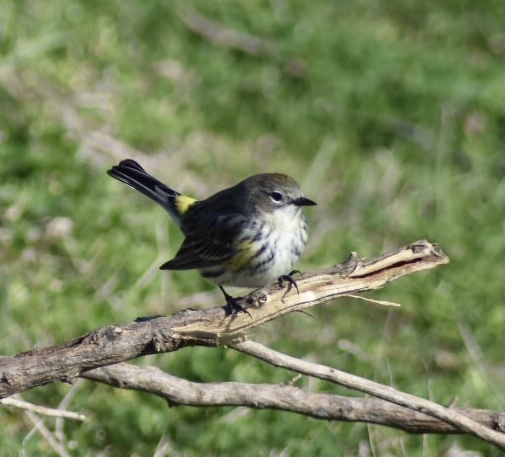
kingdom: Animalia
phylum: Chordata
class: Aves
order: Passeriformes
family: Parulidae
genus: Setophaga
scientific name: Setophaga coronata
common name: Myrtle warbler
